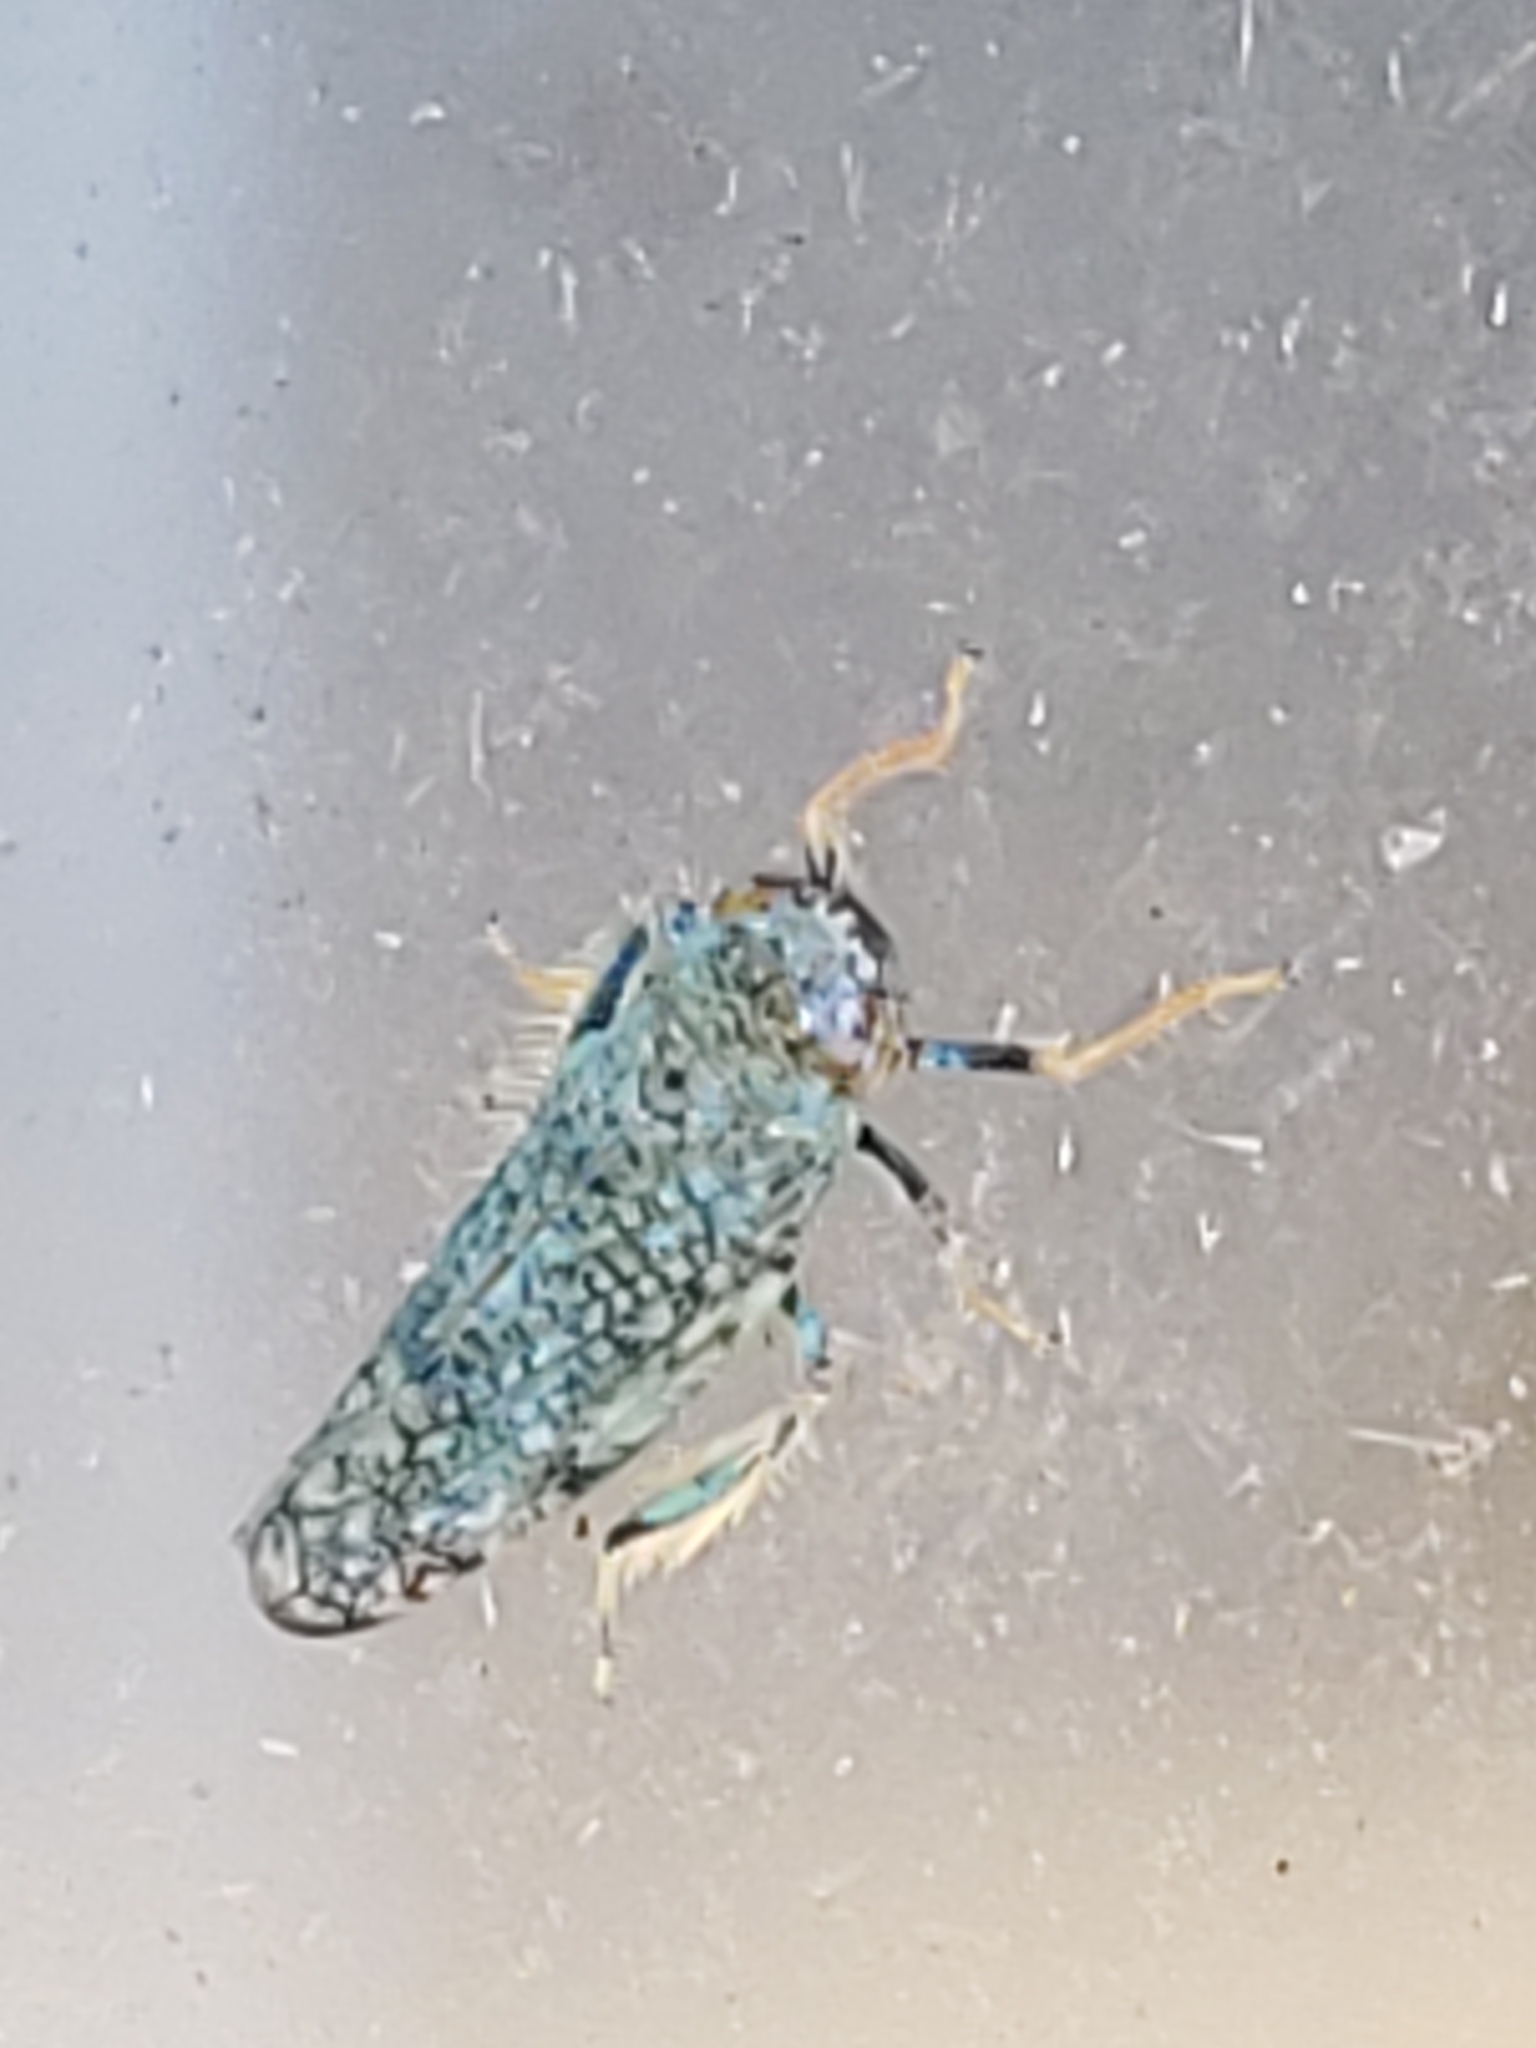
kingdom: Animalia
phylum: Arthropoda
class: Insecta
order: Hemiptera
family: Cicadellidae
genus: Orientus
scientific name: Orientus ishidae
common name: Japanese leafhopper
